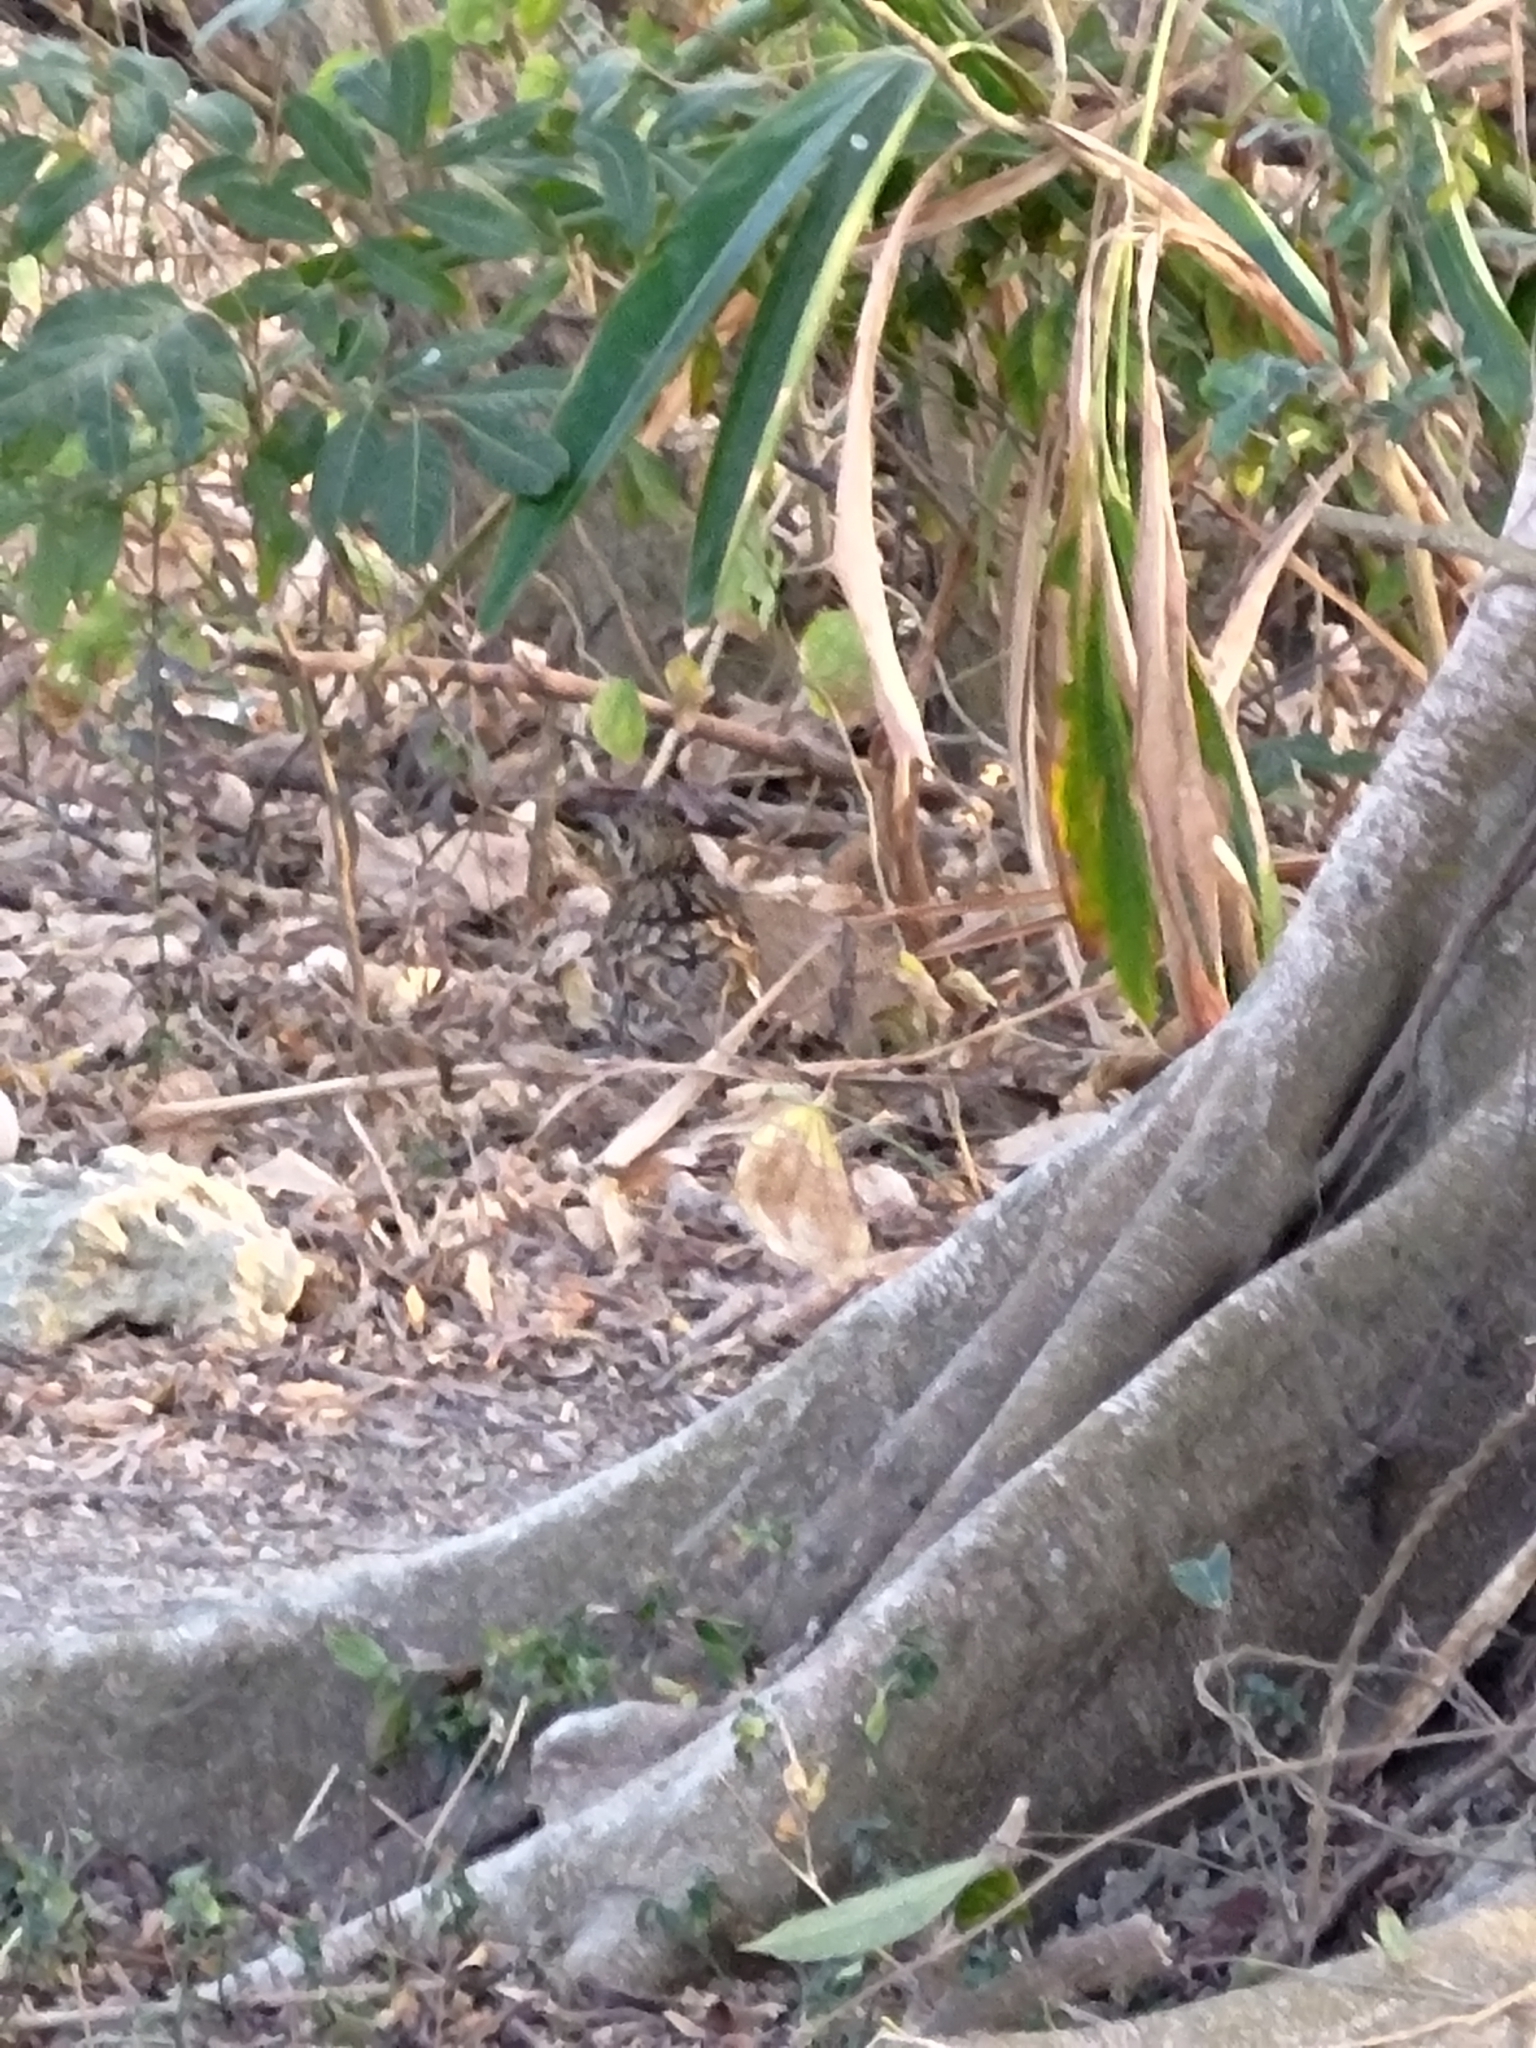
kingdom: Animalia
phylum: Chordata
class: Aves
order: Passeriformes
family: Turdidae
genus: Zoothera
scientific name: Zoothera aurea
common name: White's thrush
